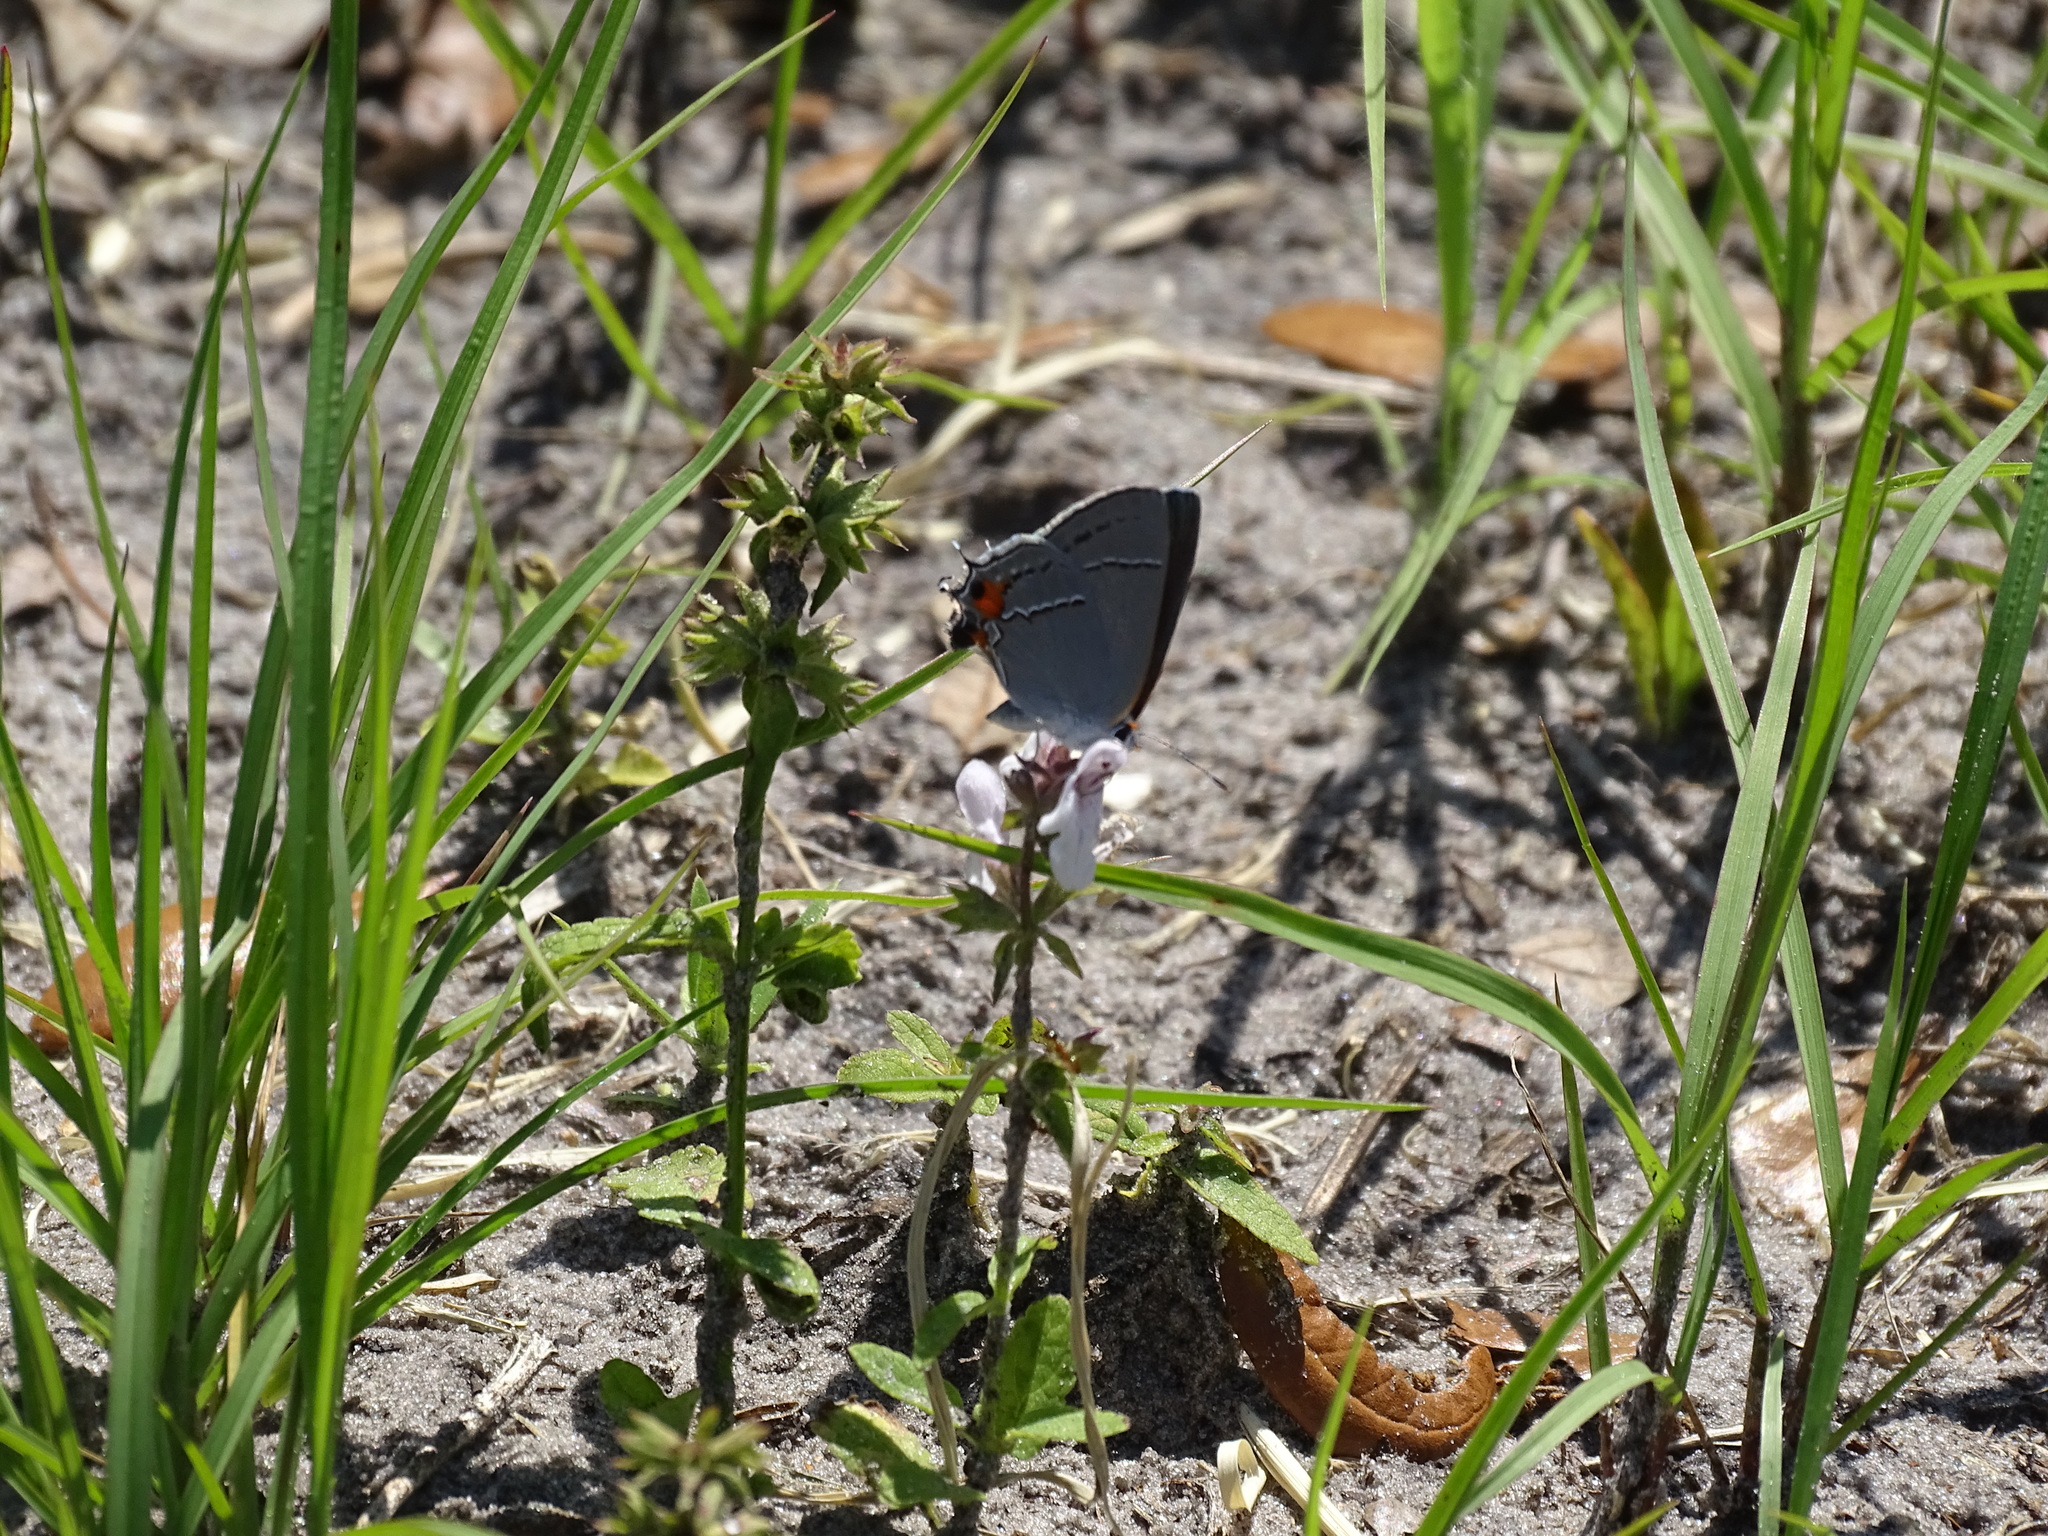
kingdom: Animalia
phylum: Arthropoda
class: Insecta
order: Lepidoptera
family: Lycaenidae
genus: Strymon
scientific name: Strymon melinus
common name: Gray hairstreak
